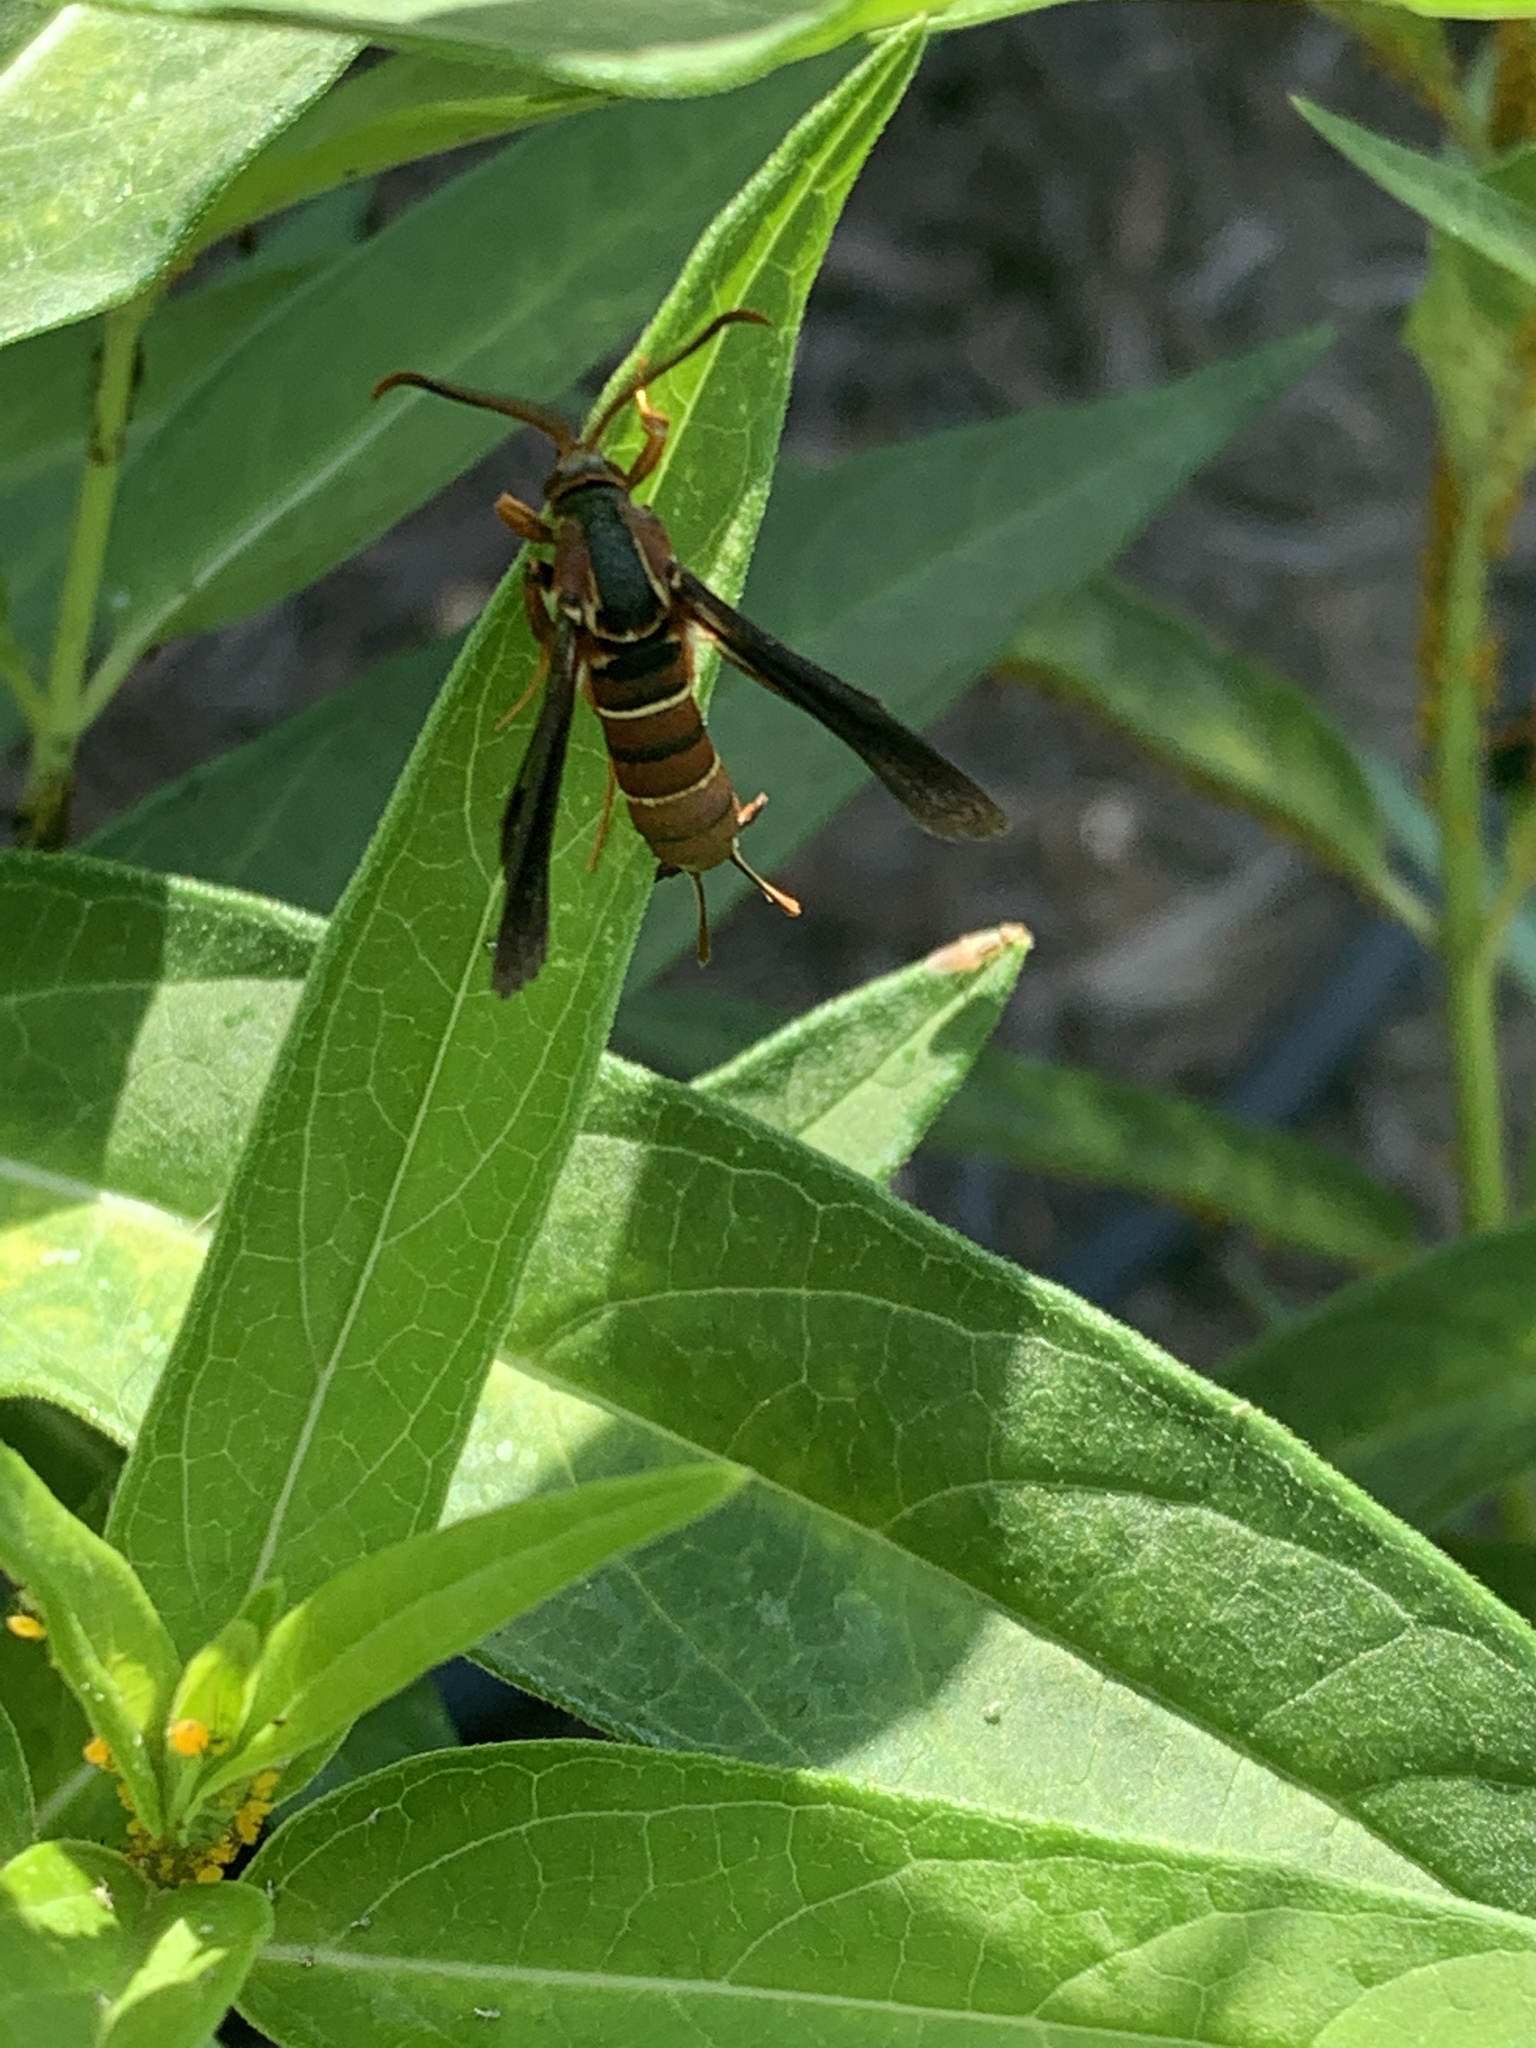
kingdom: Animalia
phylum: Arthropoda
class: Insecta
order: Lepidoptera
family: Sesiidae
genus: Vitacea
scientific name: Vitacea polistiformis
